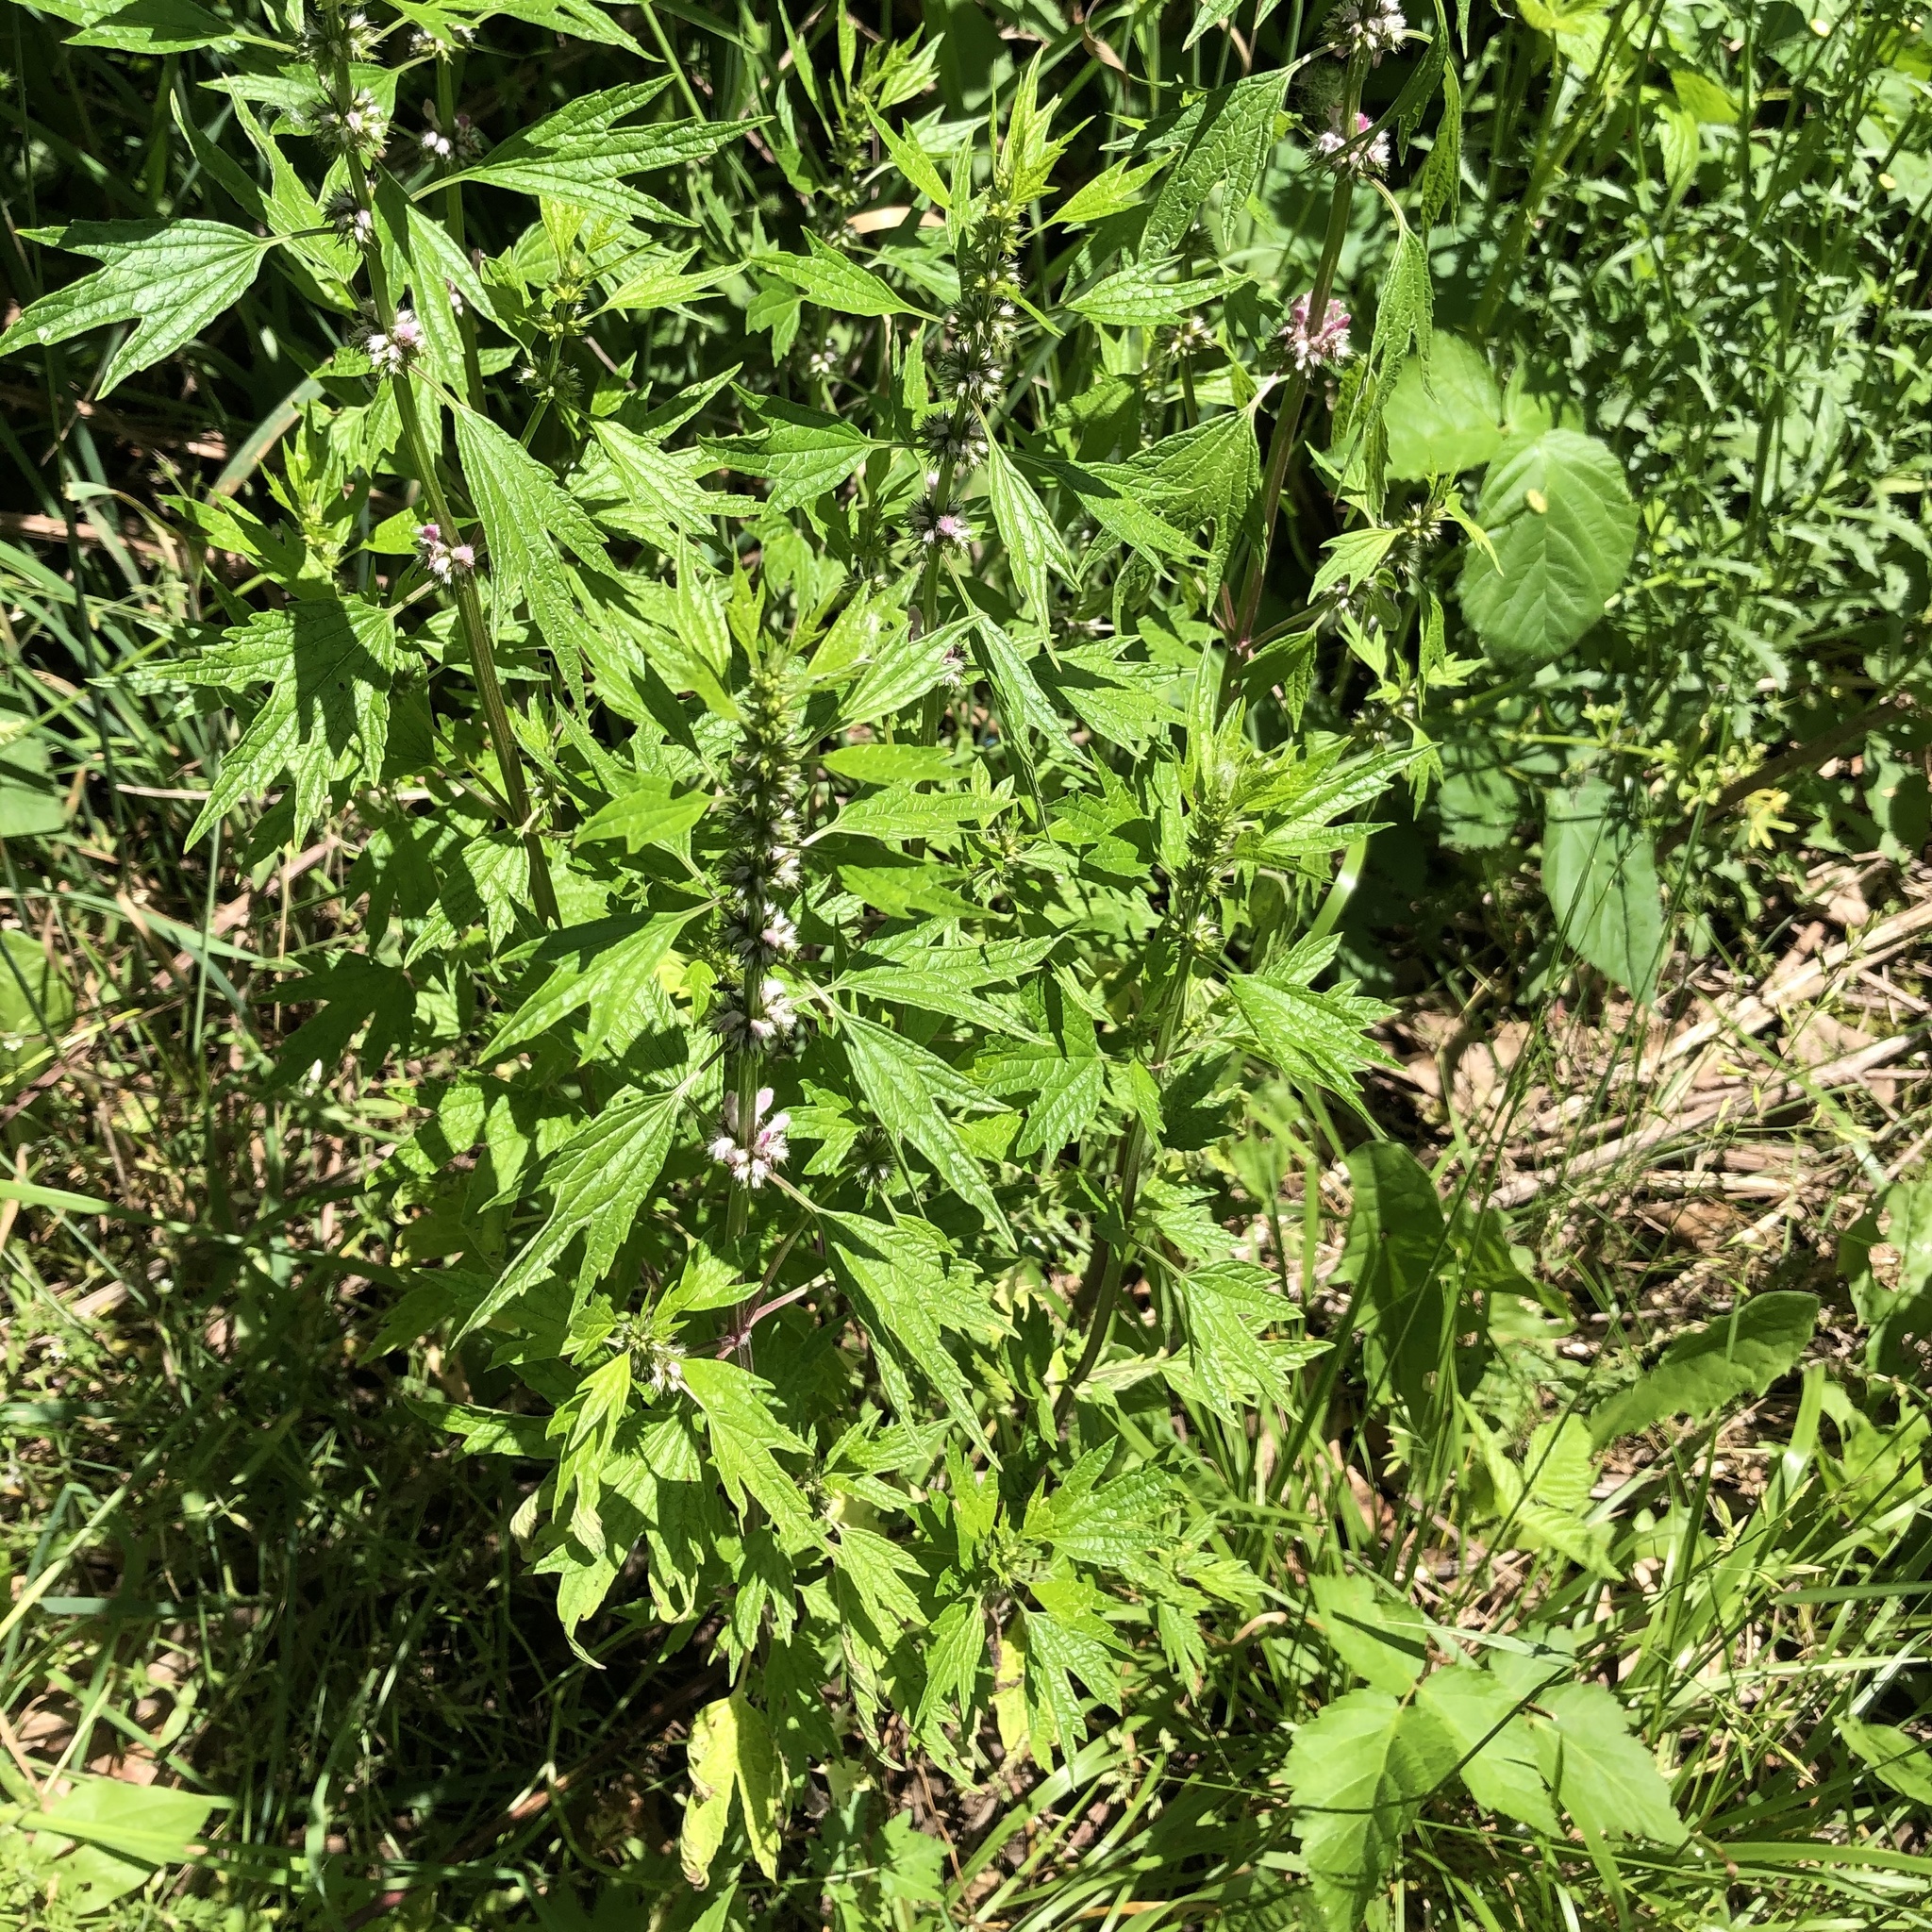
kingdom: Plantae
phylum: Tracheophyta
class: Magnoliopsida
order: Lamiales
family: Lamiaceae
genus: Leonurus
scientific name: Leonurus cardiaca
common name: Motherwort
